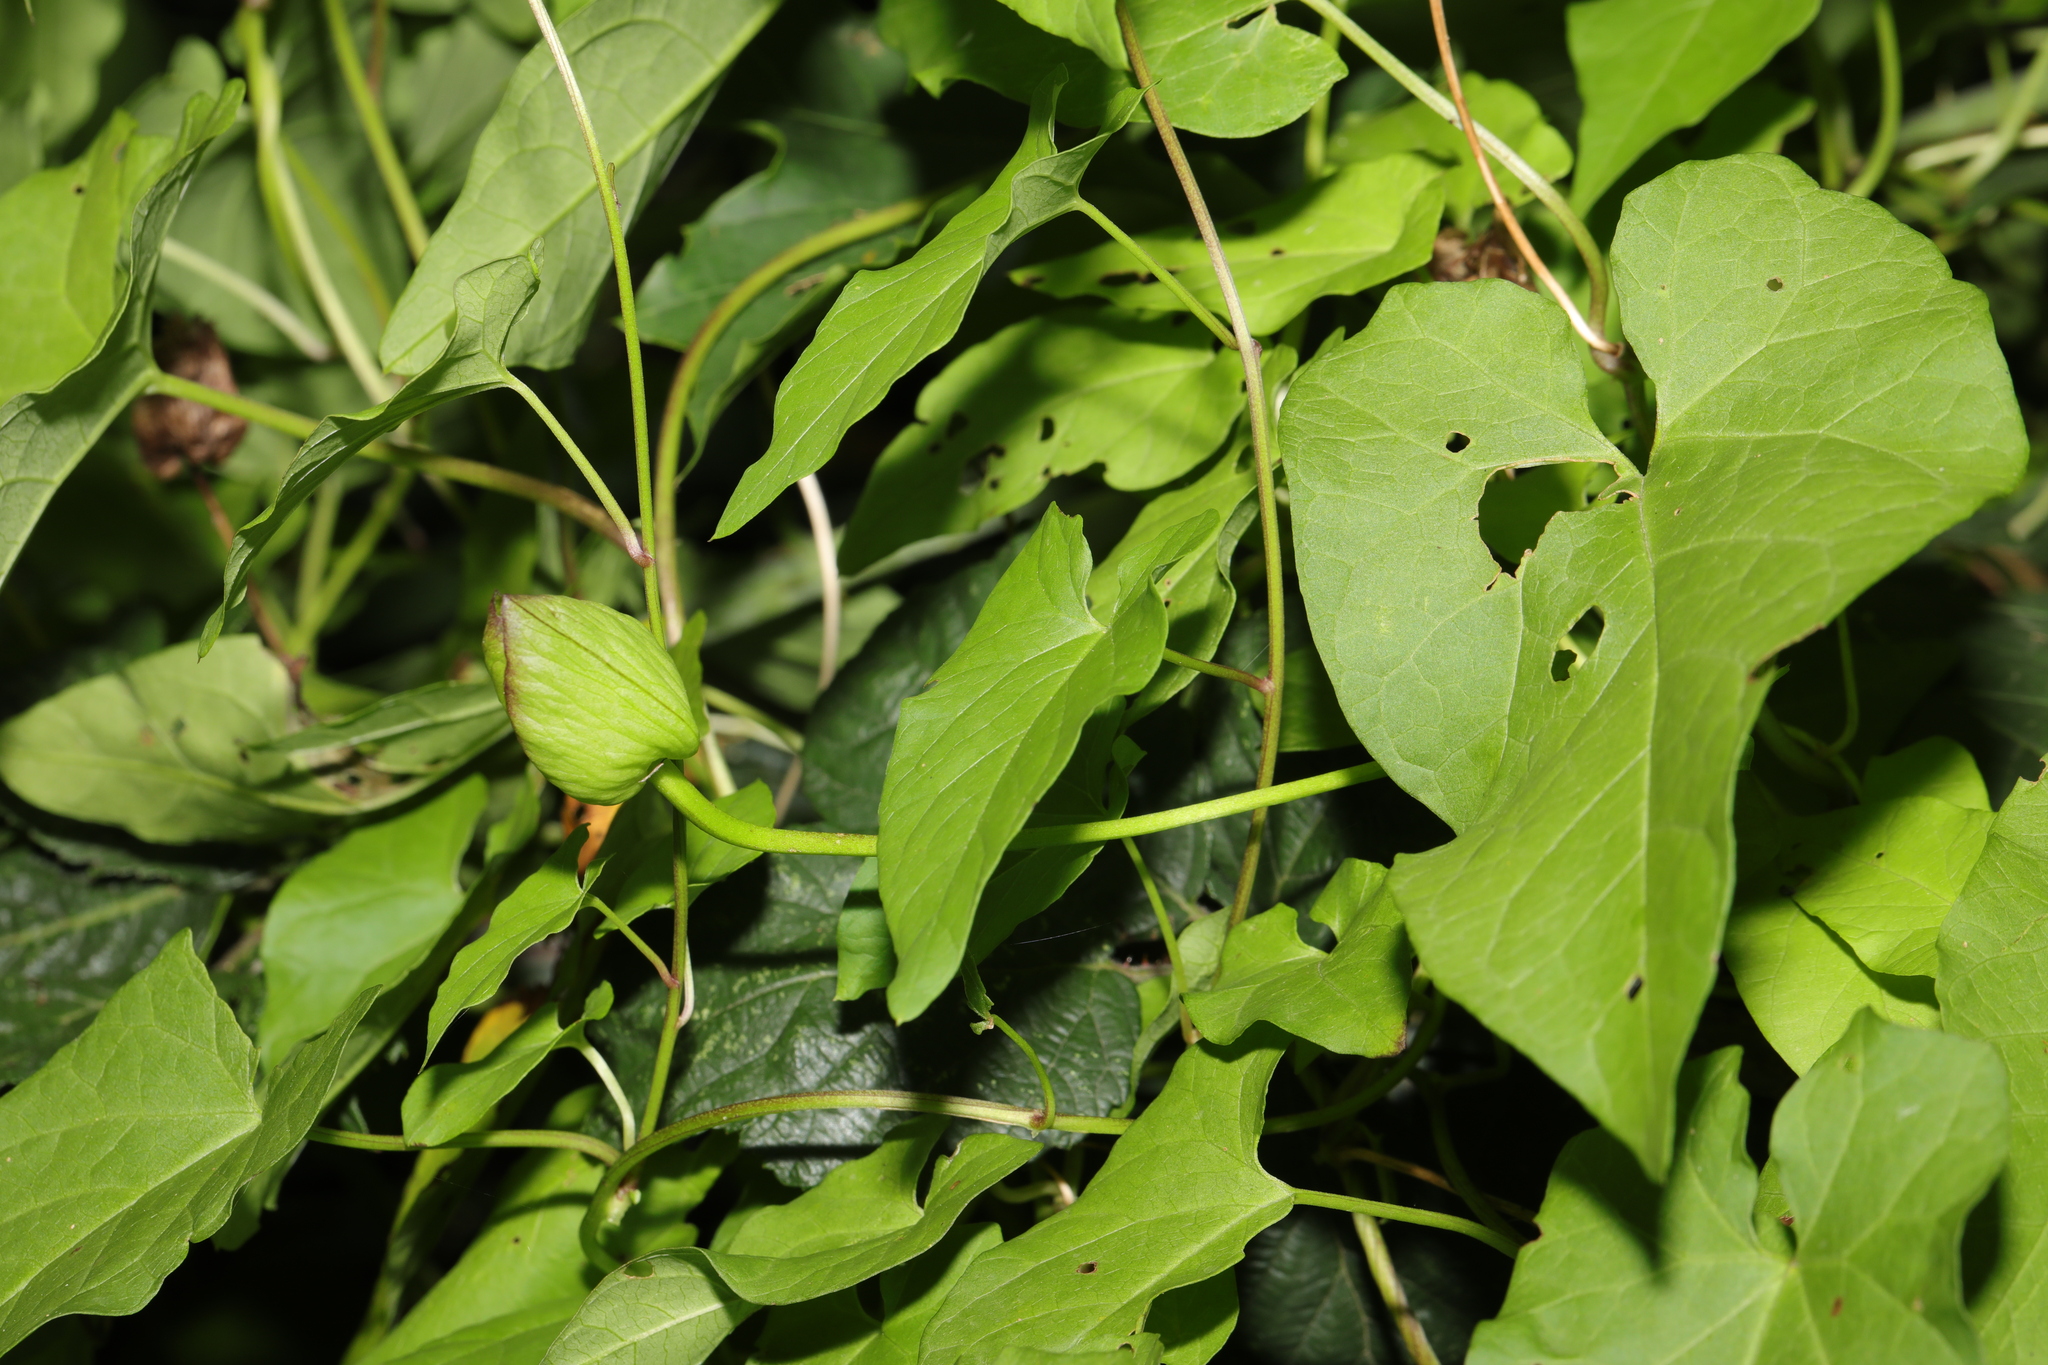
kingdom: Plantae
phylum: Tracheophyta
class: Magnoliopsida
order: Solanales
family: Convolvulaceae
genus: Calystegia
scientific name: Calystegia sepium
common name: Hedge bindweed
